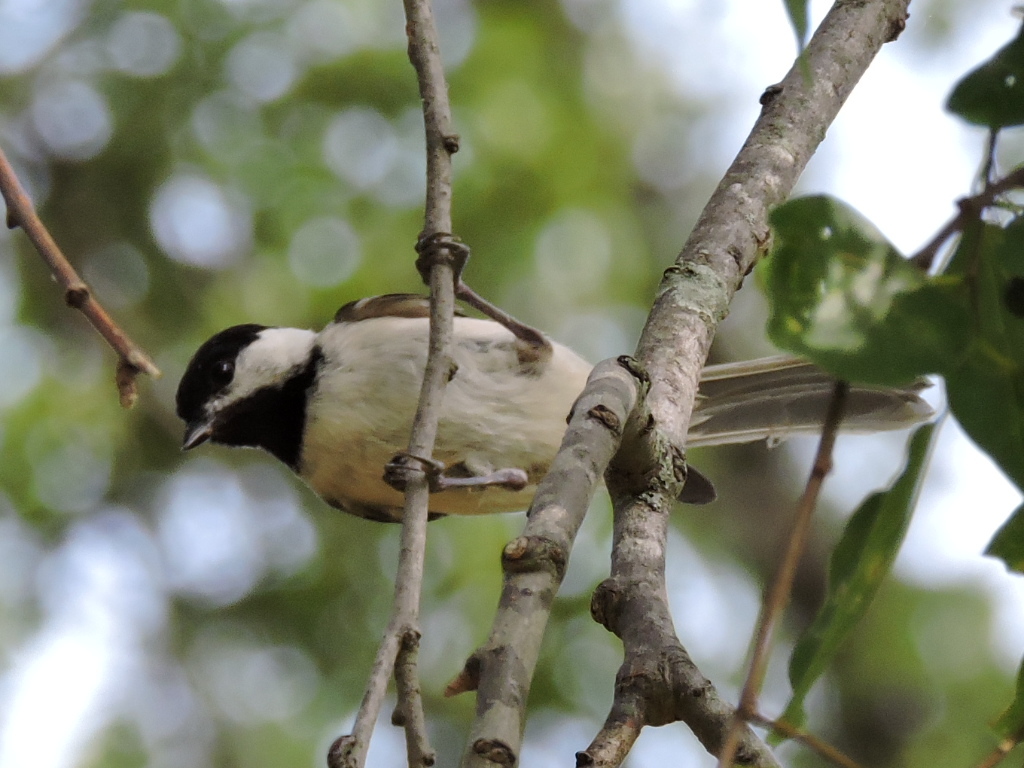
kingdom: Animalia
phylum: Chordata
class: Aves
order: Passeriformes
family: Paridae
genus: Poecile
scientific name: Poecile carolinensis
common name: Carolina chickadee
